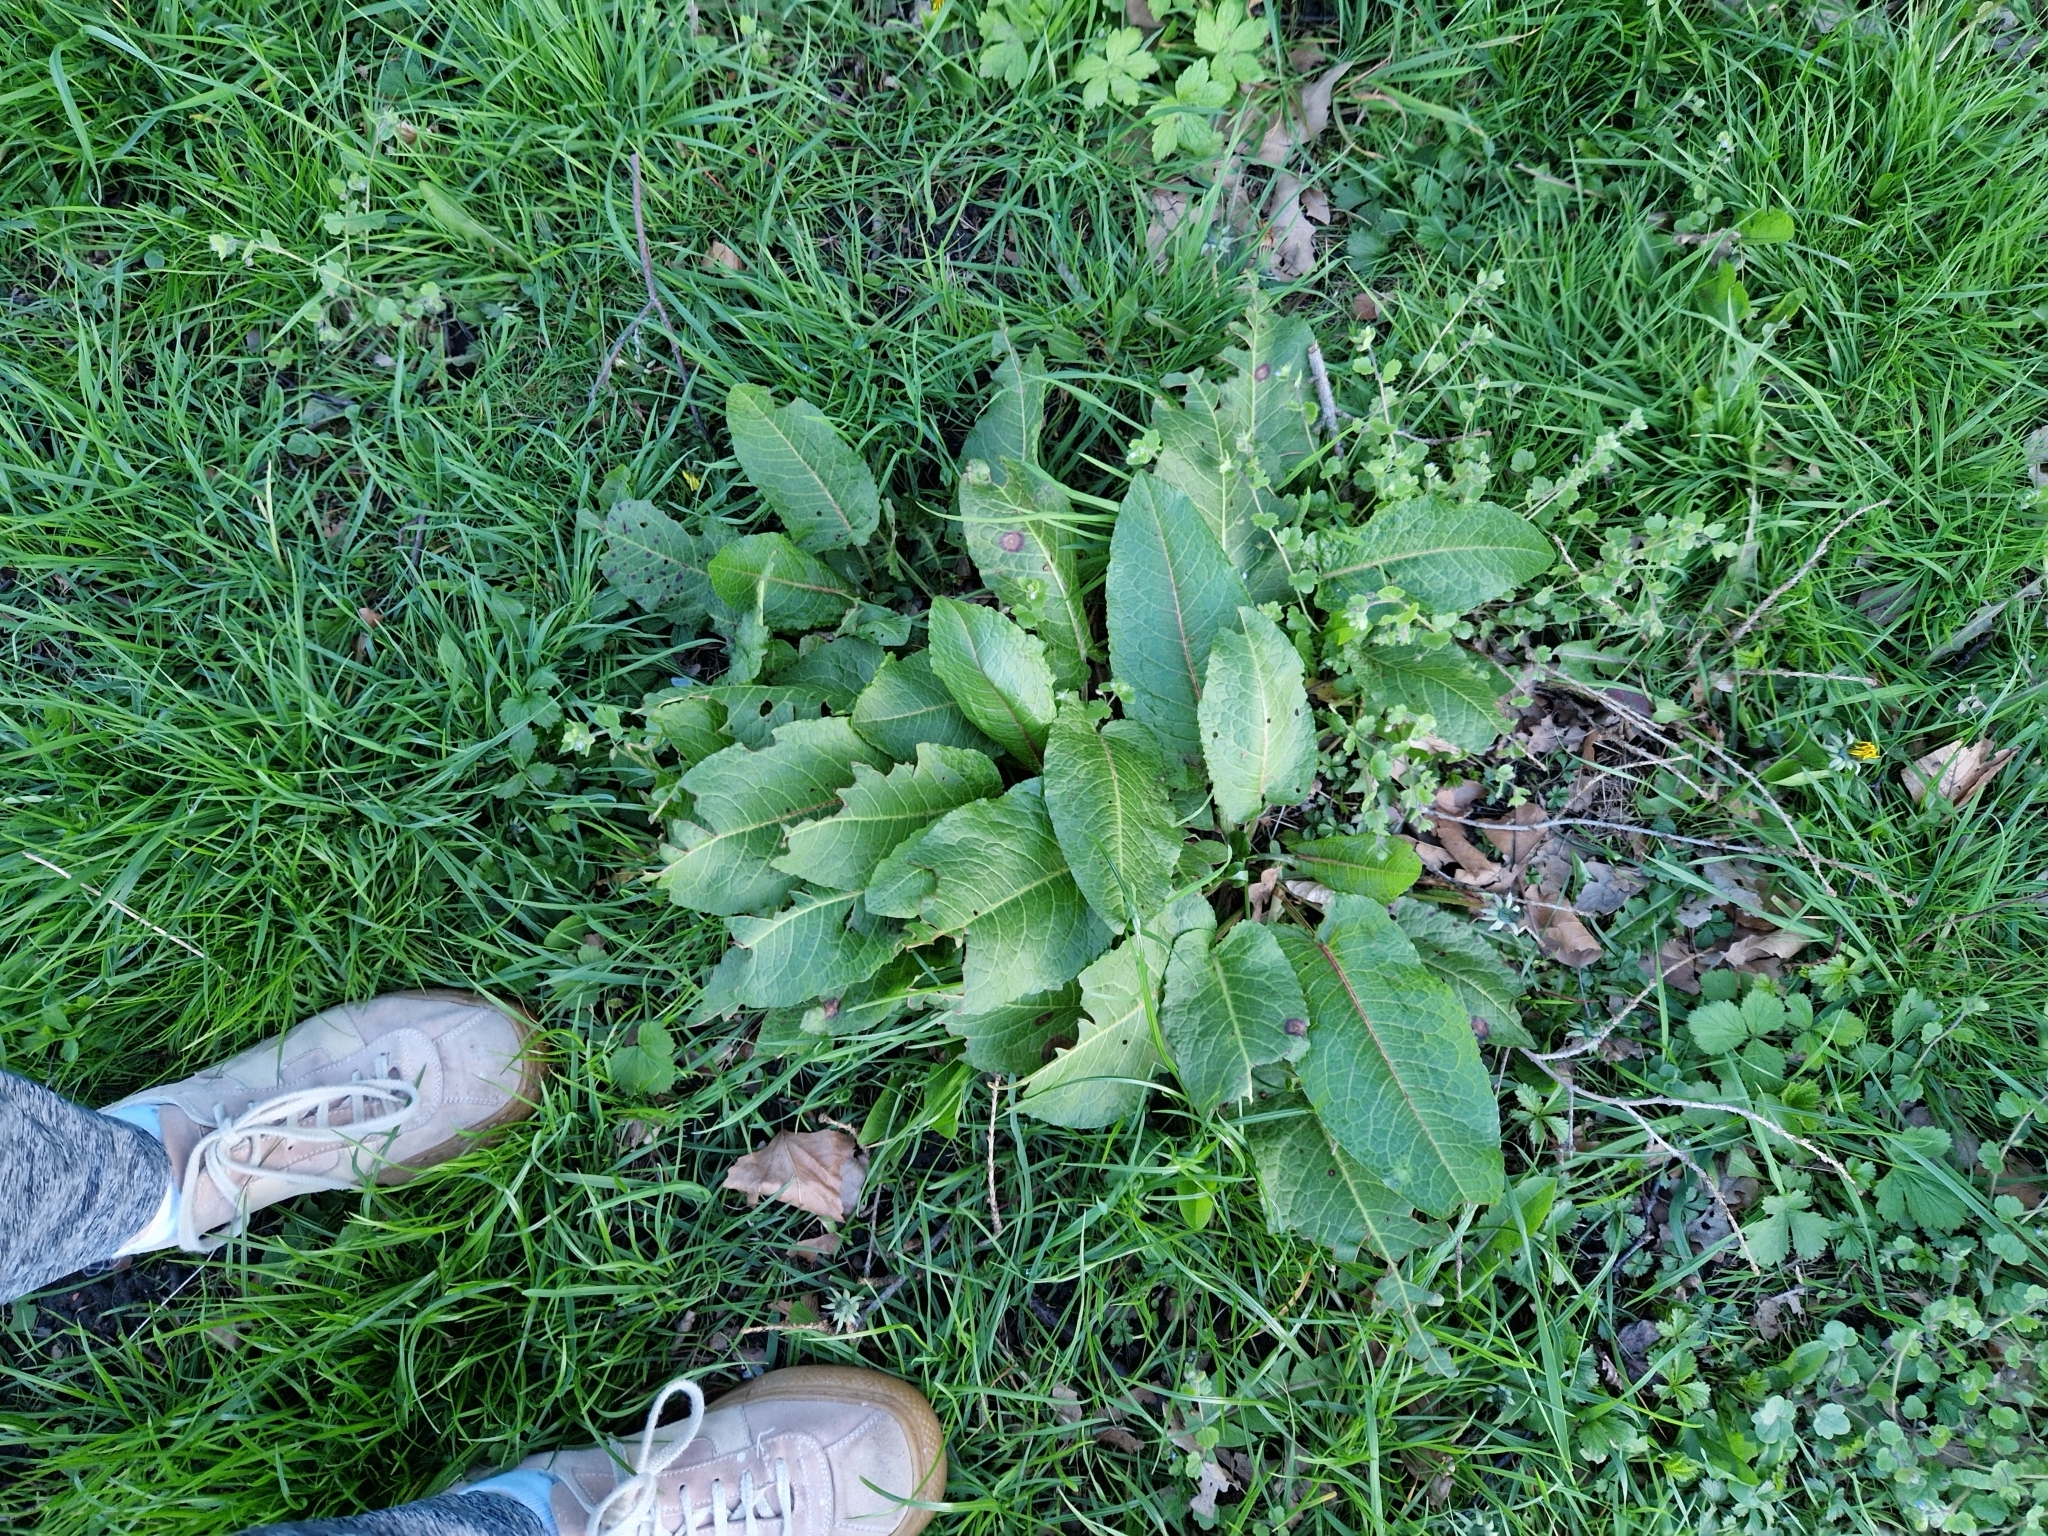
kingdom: Plantae
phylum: Tracheophyta
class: Magnoliopsida
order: Caryophyllales
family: Polygonaceae
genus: Rumex
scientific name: Rumex obtusifolius
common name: Bitter dock
